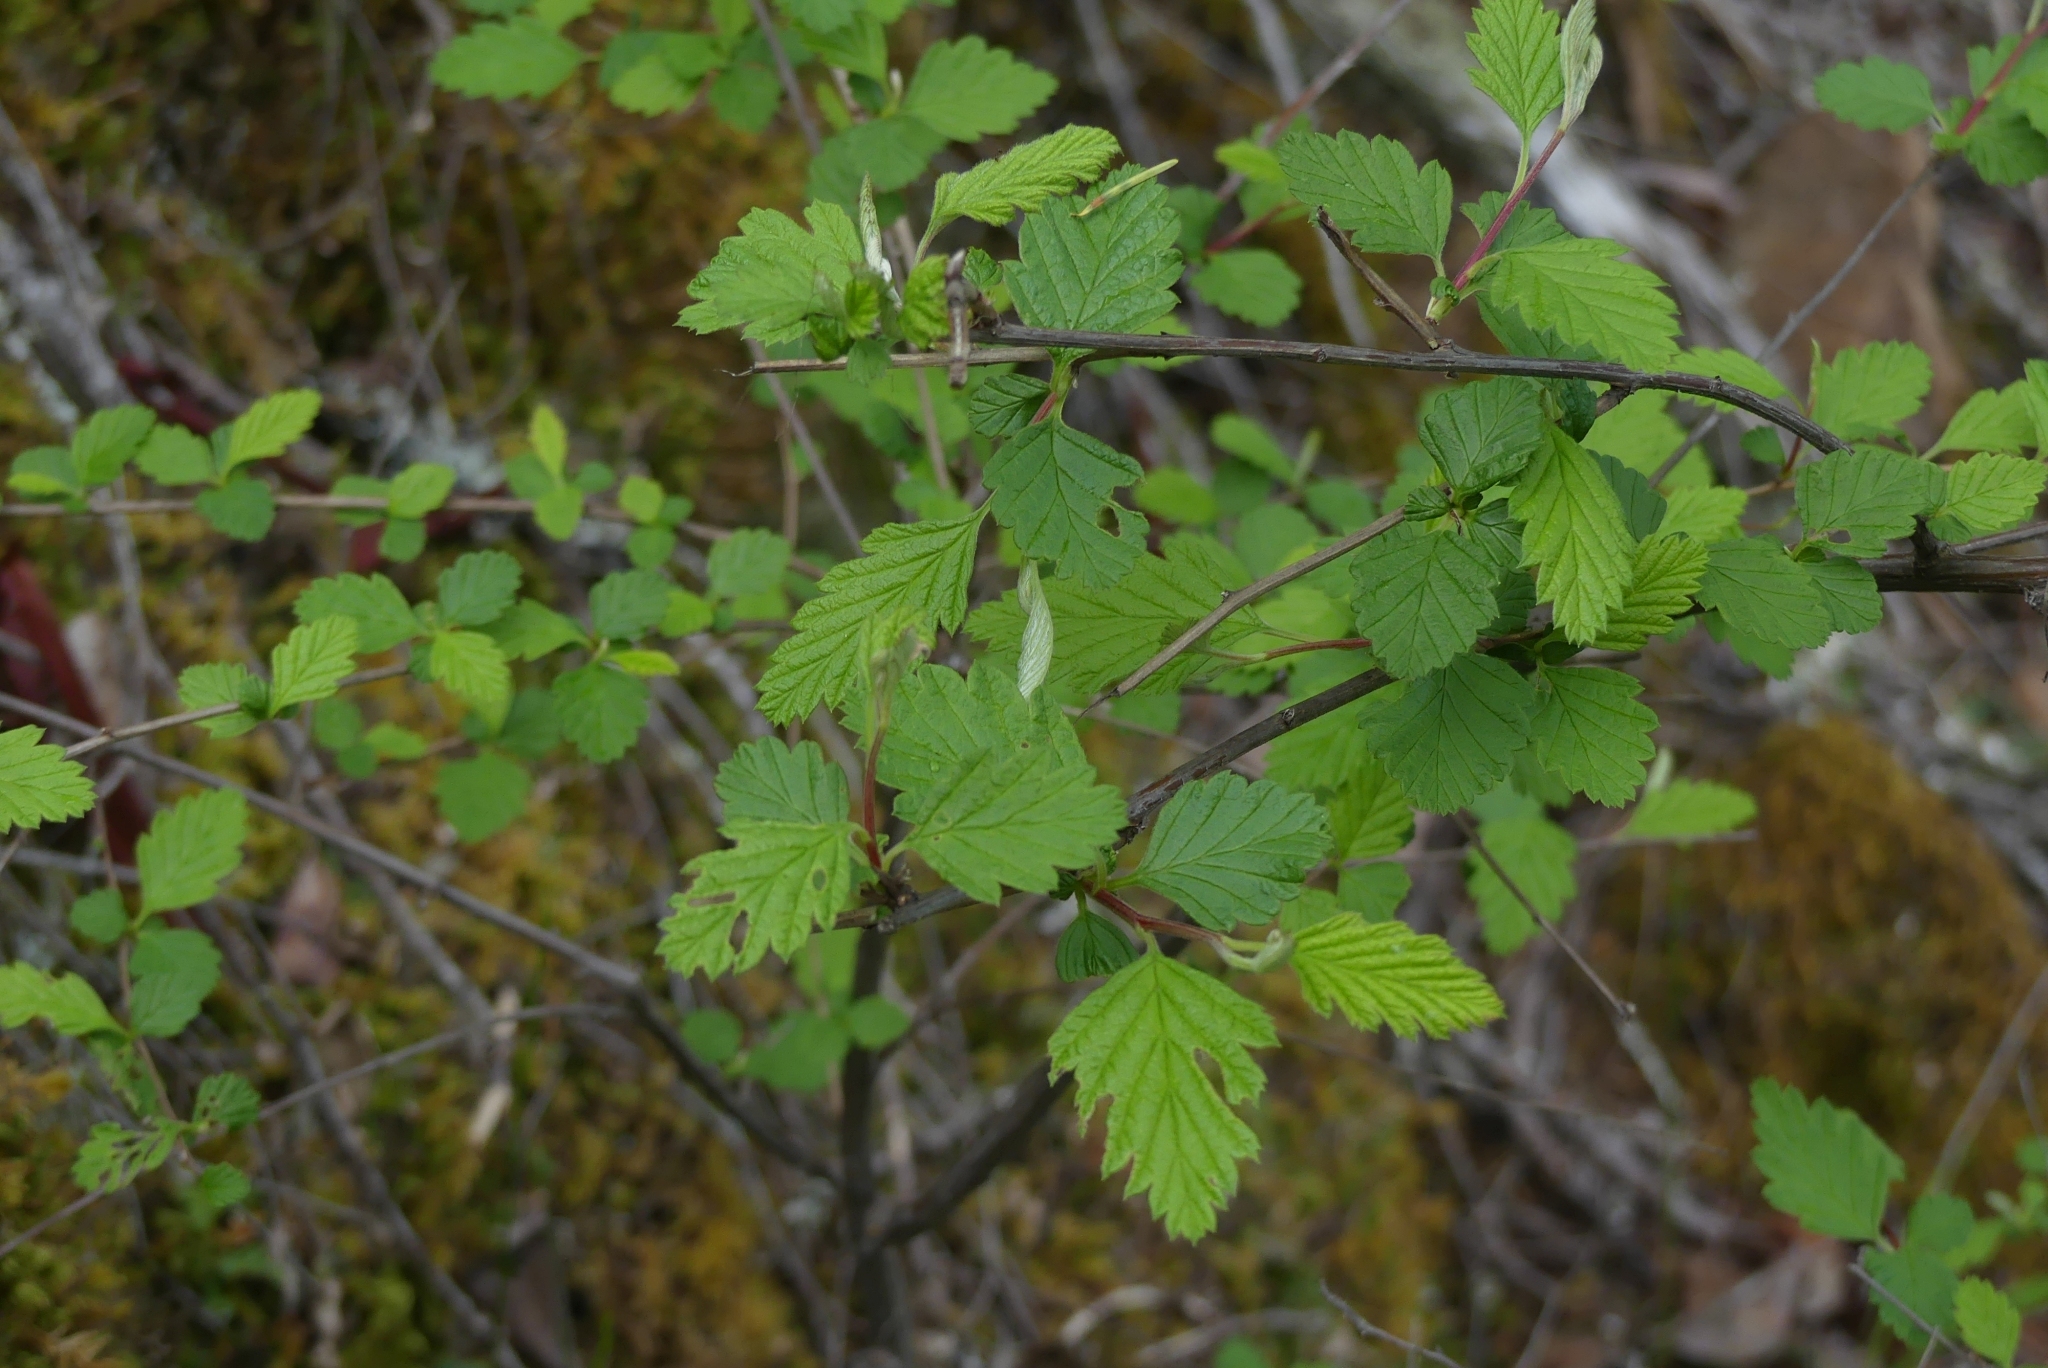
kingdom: Plantae
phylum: Tracheophyta
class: Magnoliopsida
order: Rosales
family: Rosaceae
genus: Holodiscus
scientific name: Holodiscus discolor
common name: Oceanspray
